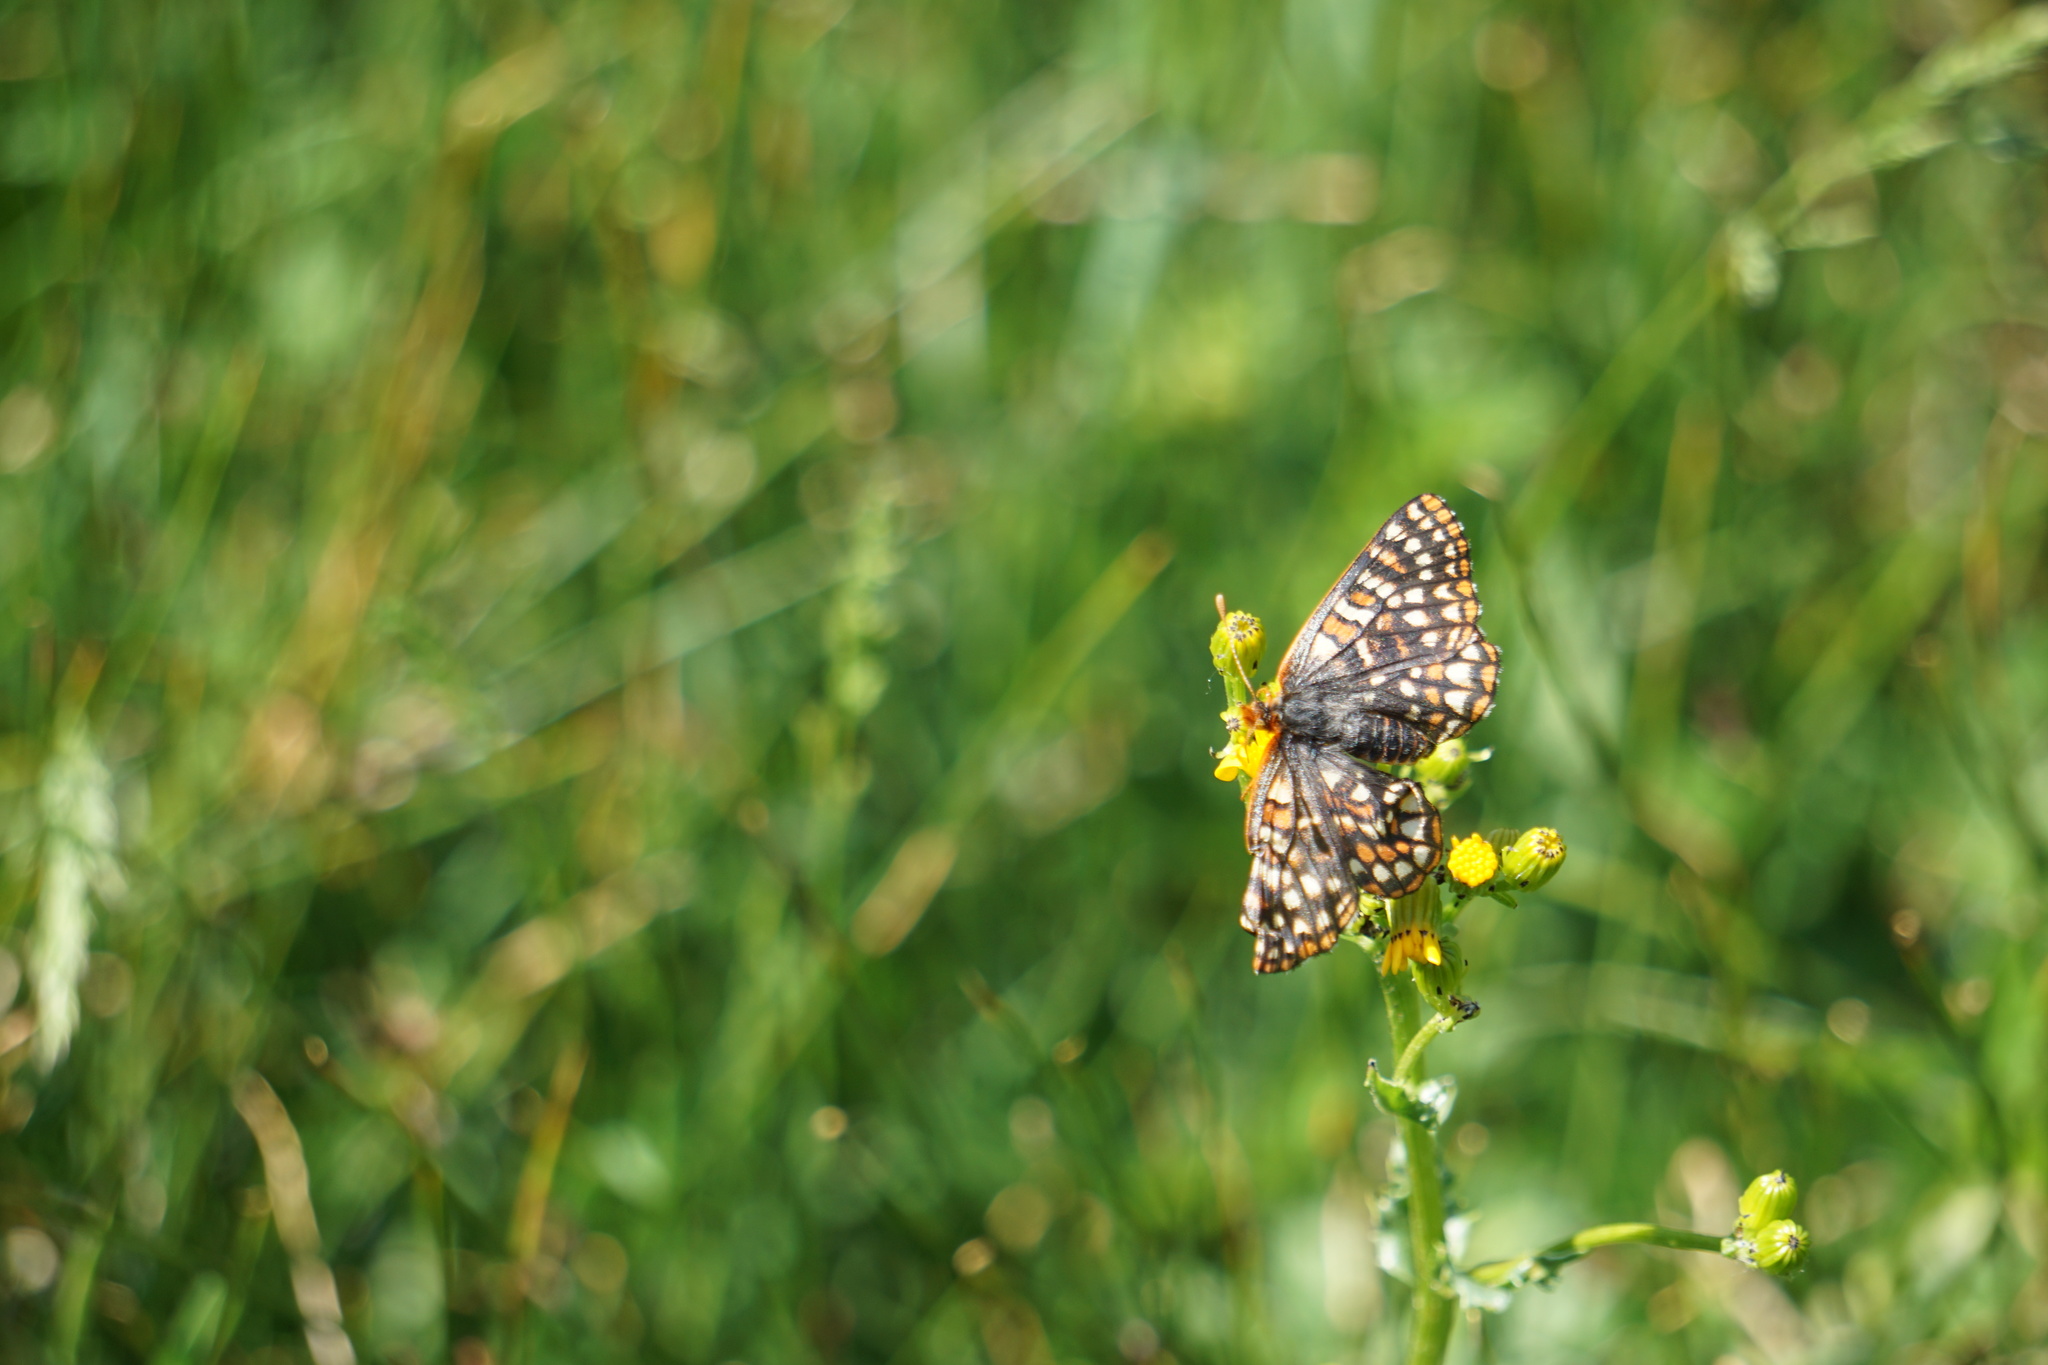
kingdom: Animalia
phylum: Arthropoda
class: Insecta
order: Lepidoptera
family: Nymphalidae
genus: Occidryas
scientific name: Occidryas anicia
